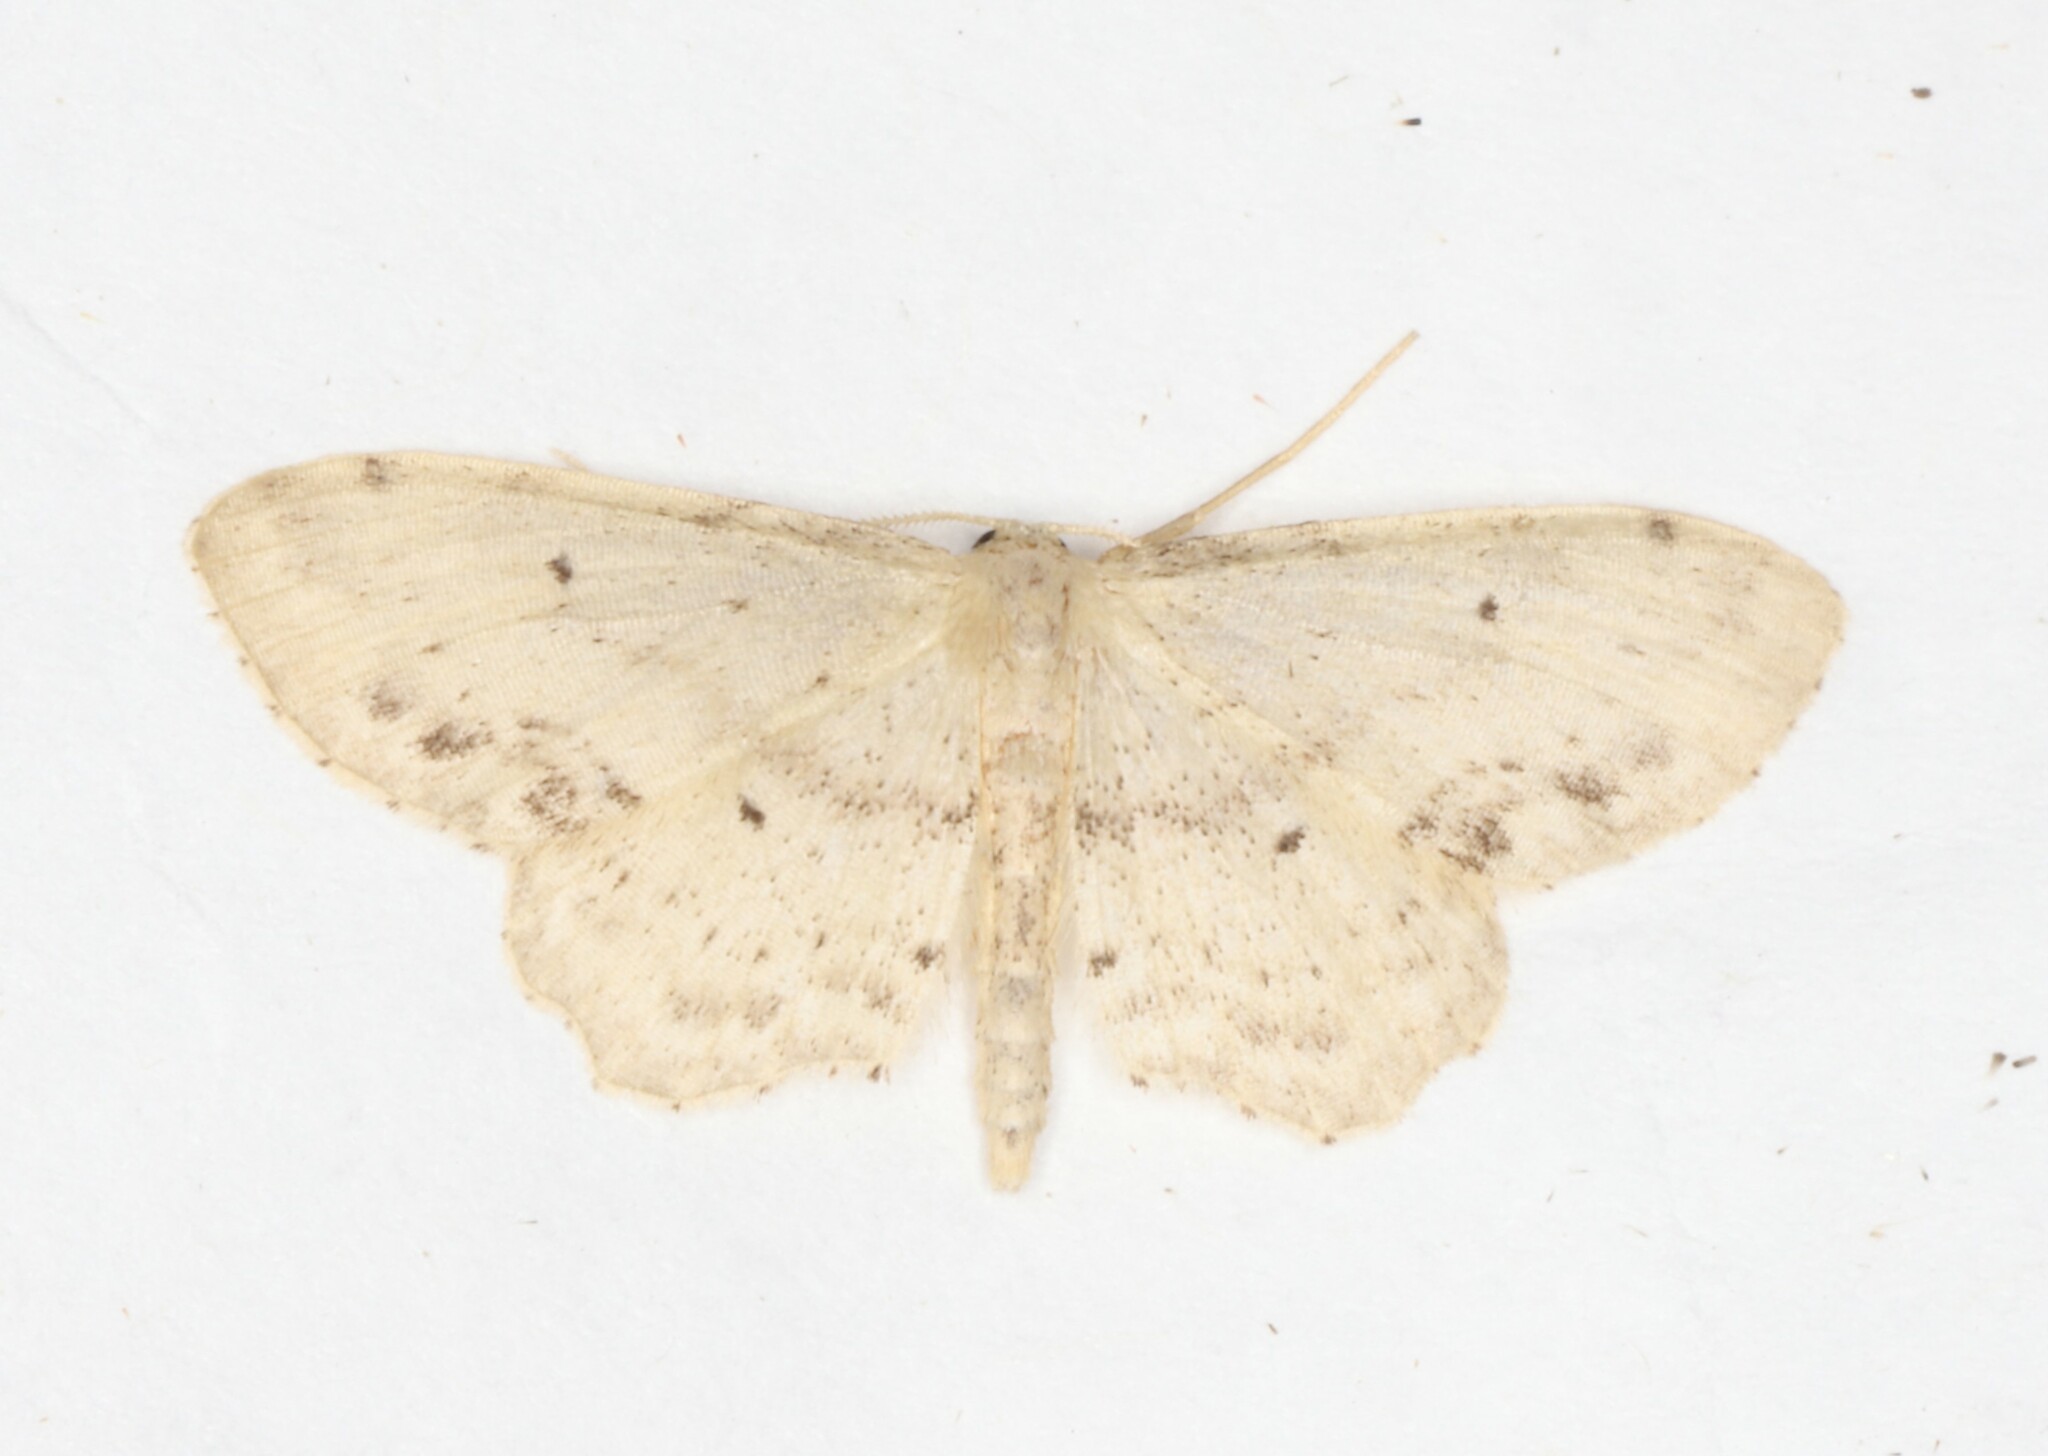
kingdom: Animalia
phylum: Arthropoda
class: Insecta
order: Lepidoptera
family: Geometridae
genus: Idaea
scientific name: Idaea dimidiata
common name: Single-dotted wave
